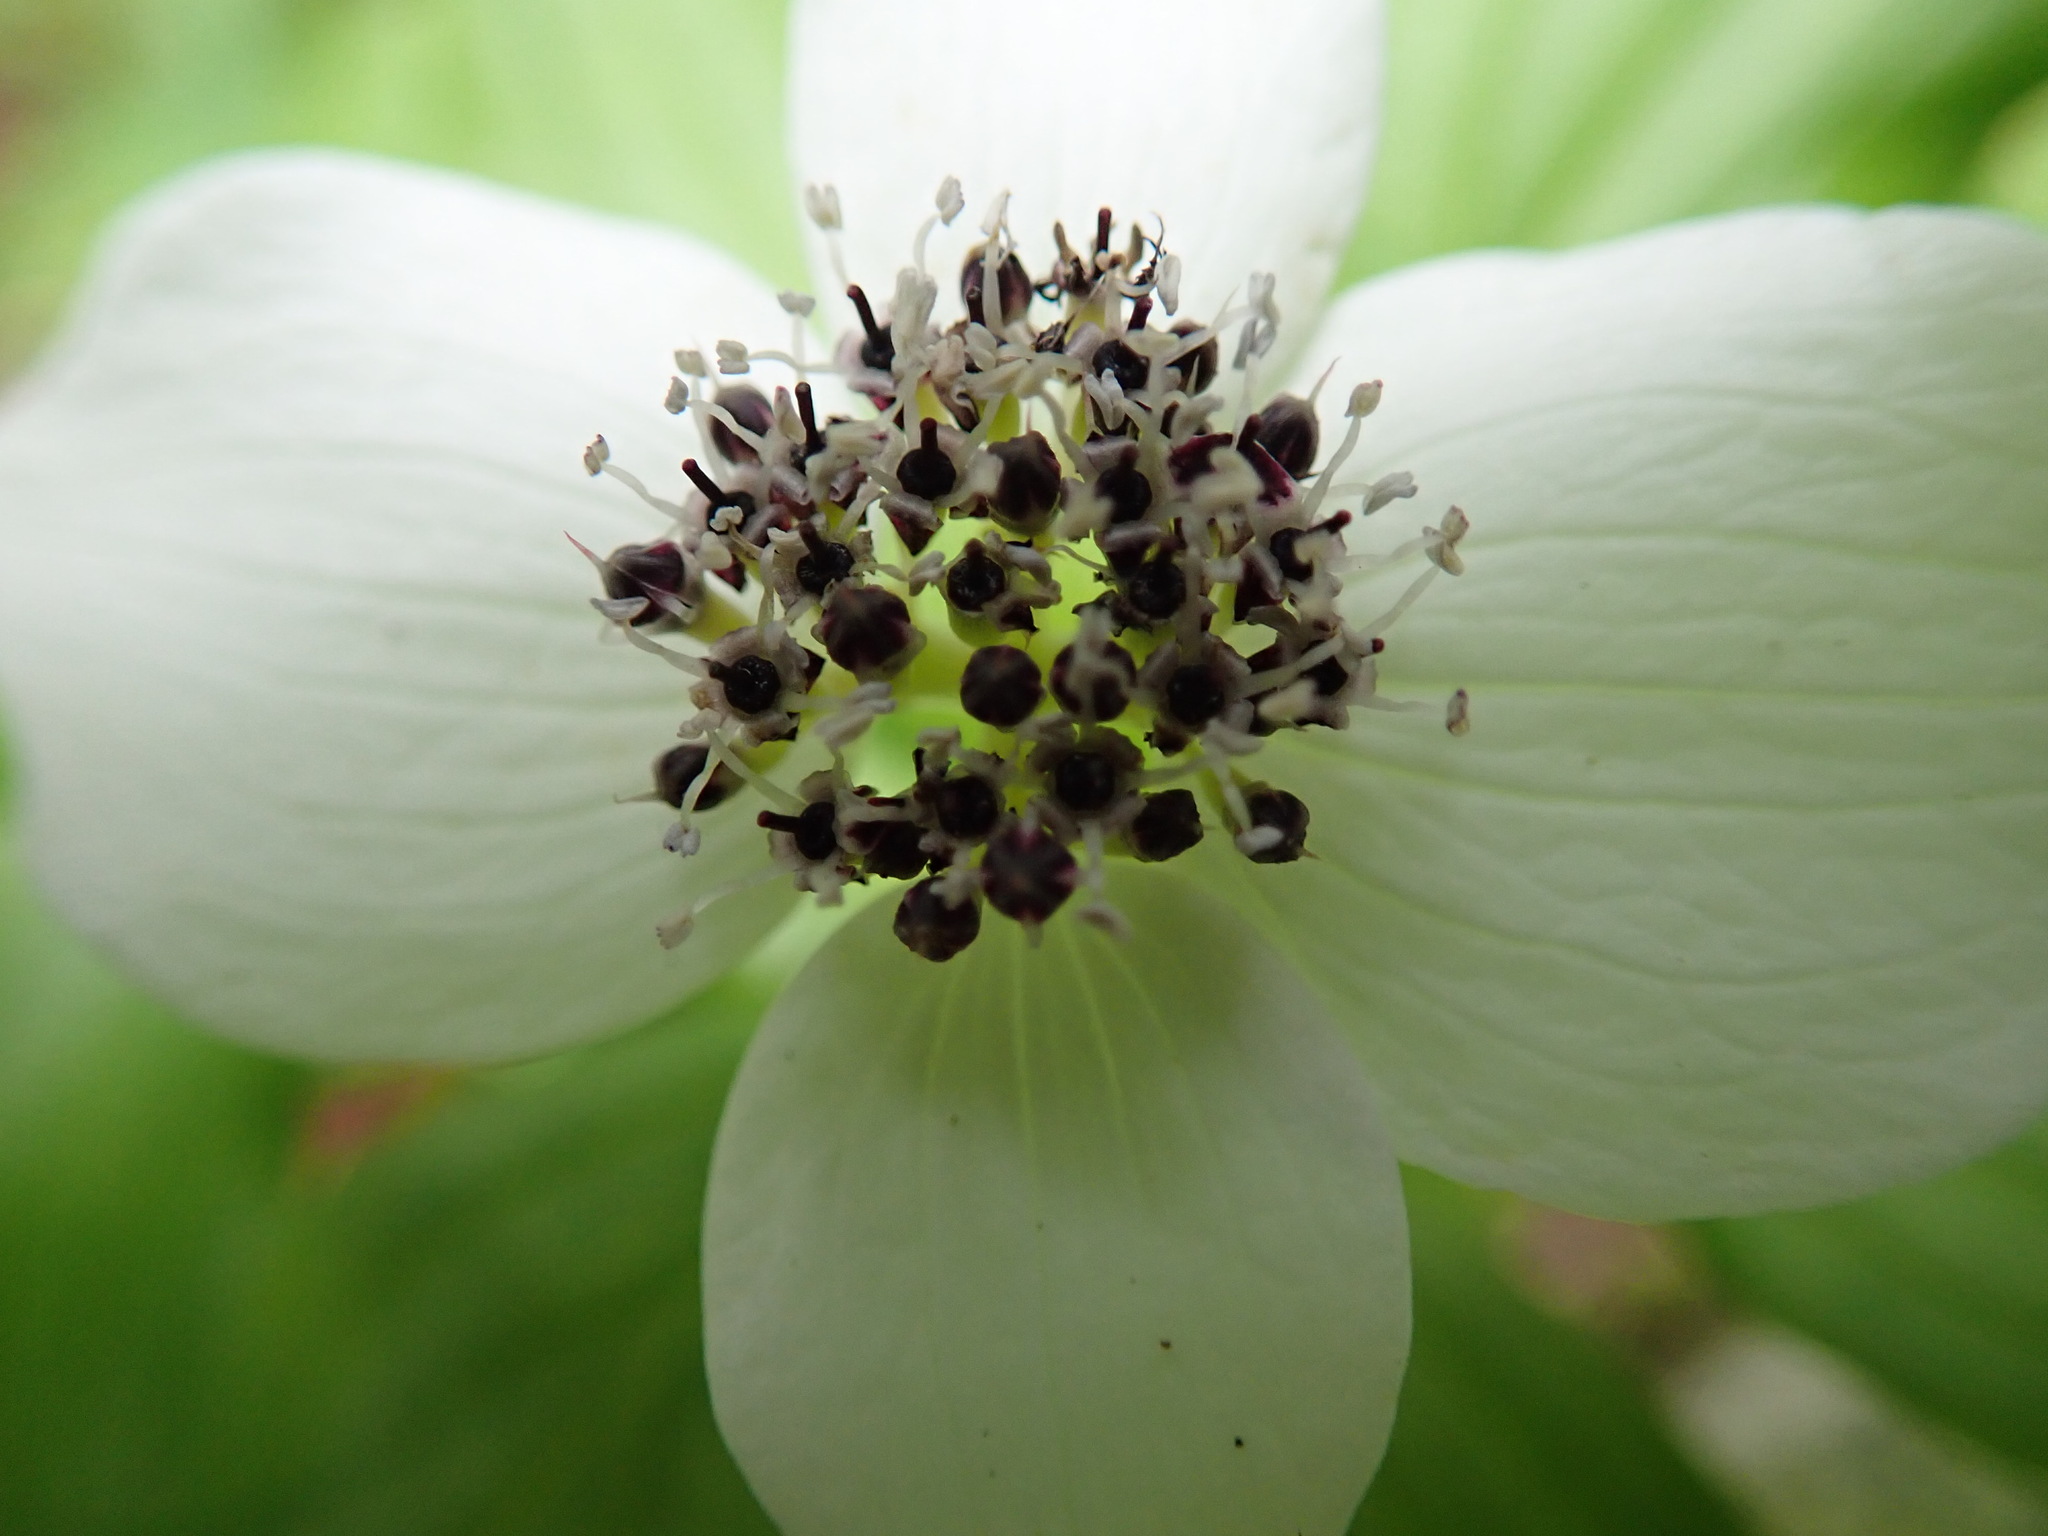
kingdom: Plantae
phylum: Tracheophyta
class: Magnoliopsida
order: Cornales
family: Cornaceae
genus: Cornus
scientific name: Cornus unalaschkensis
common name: Alaska bunchberry
